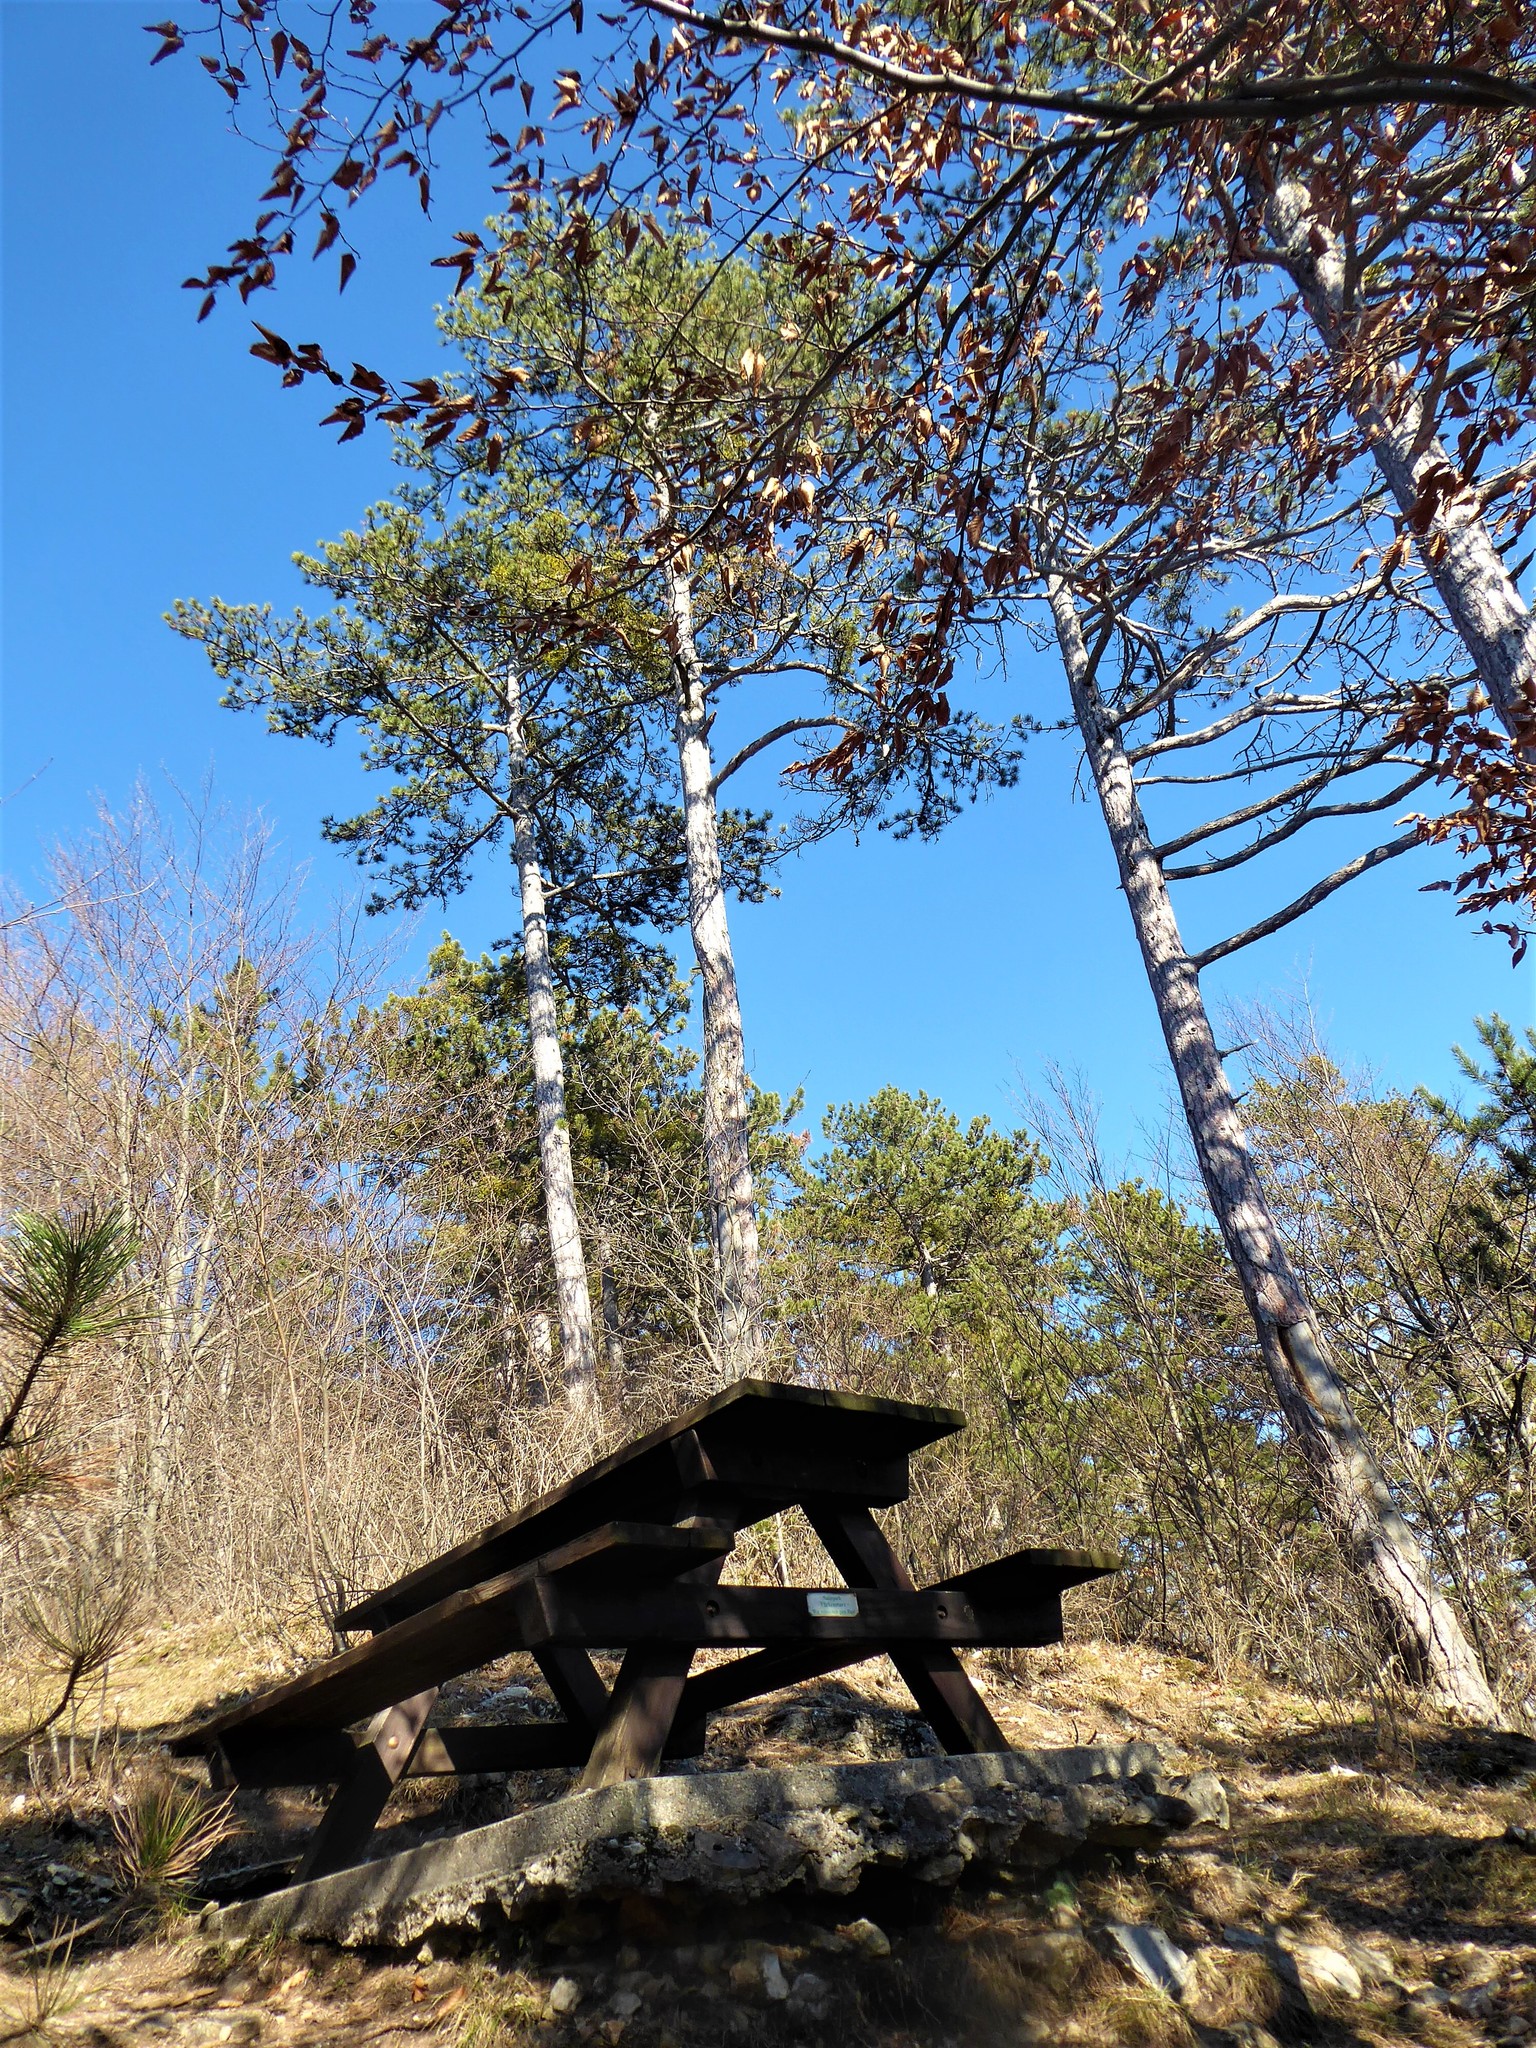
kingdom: Plantae
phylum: Tracheophyta
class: Pinopsida
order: Pinales
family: Pinaceae
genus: Pinus
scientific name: Pinus nigra
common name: Austrian pine
